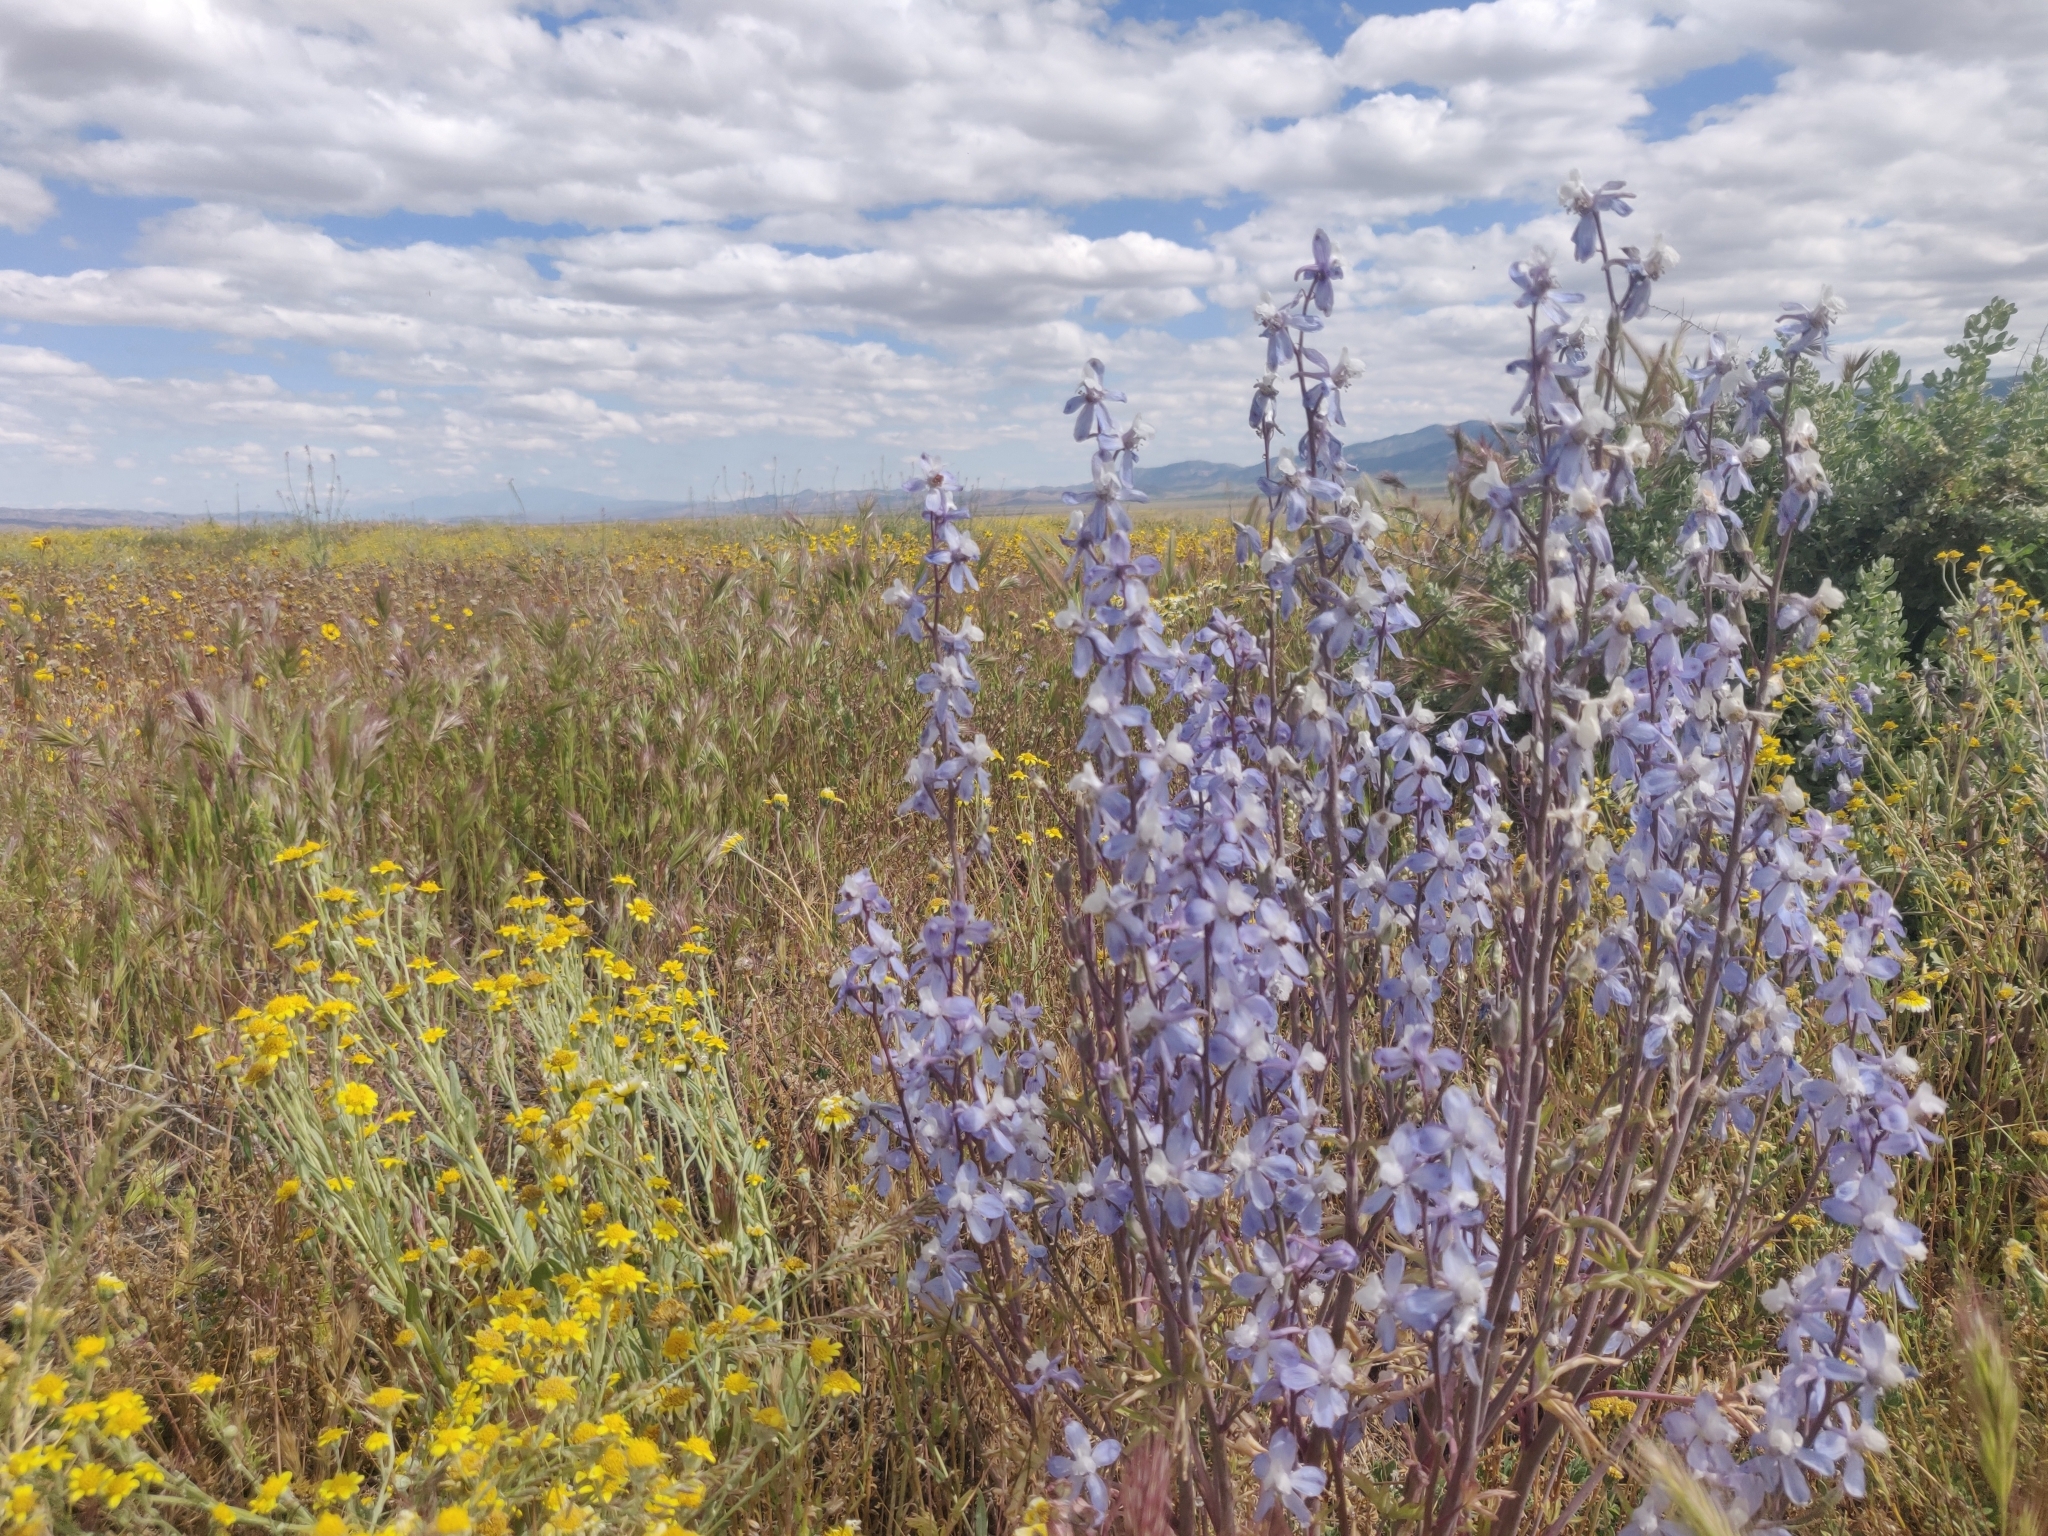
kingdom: Plantae
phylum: Tracheophyta
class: Magnoliopsida
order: Ranunculales
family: Ranunculaceae
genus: Delphinium
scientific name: Delphinium recurvatum
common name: Recurved larkspur
